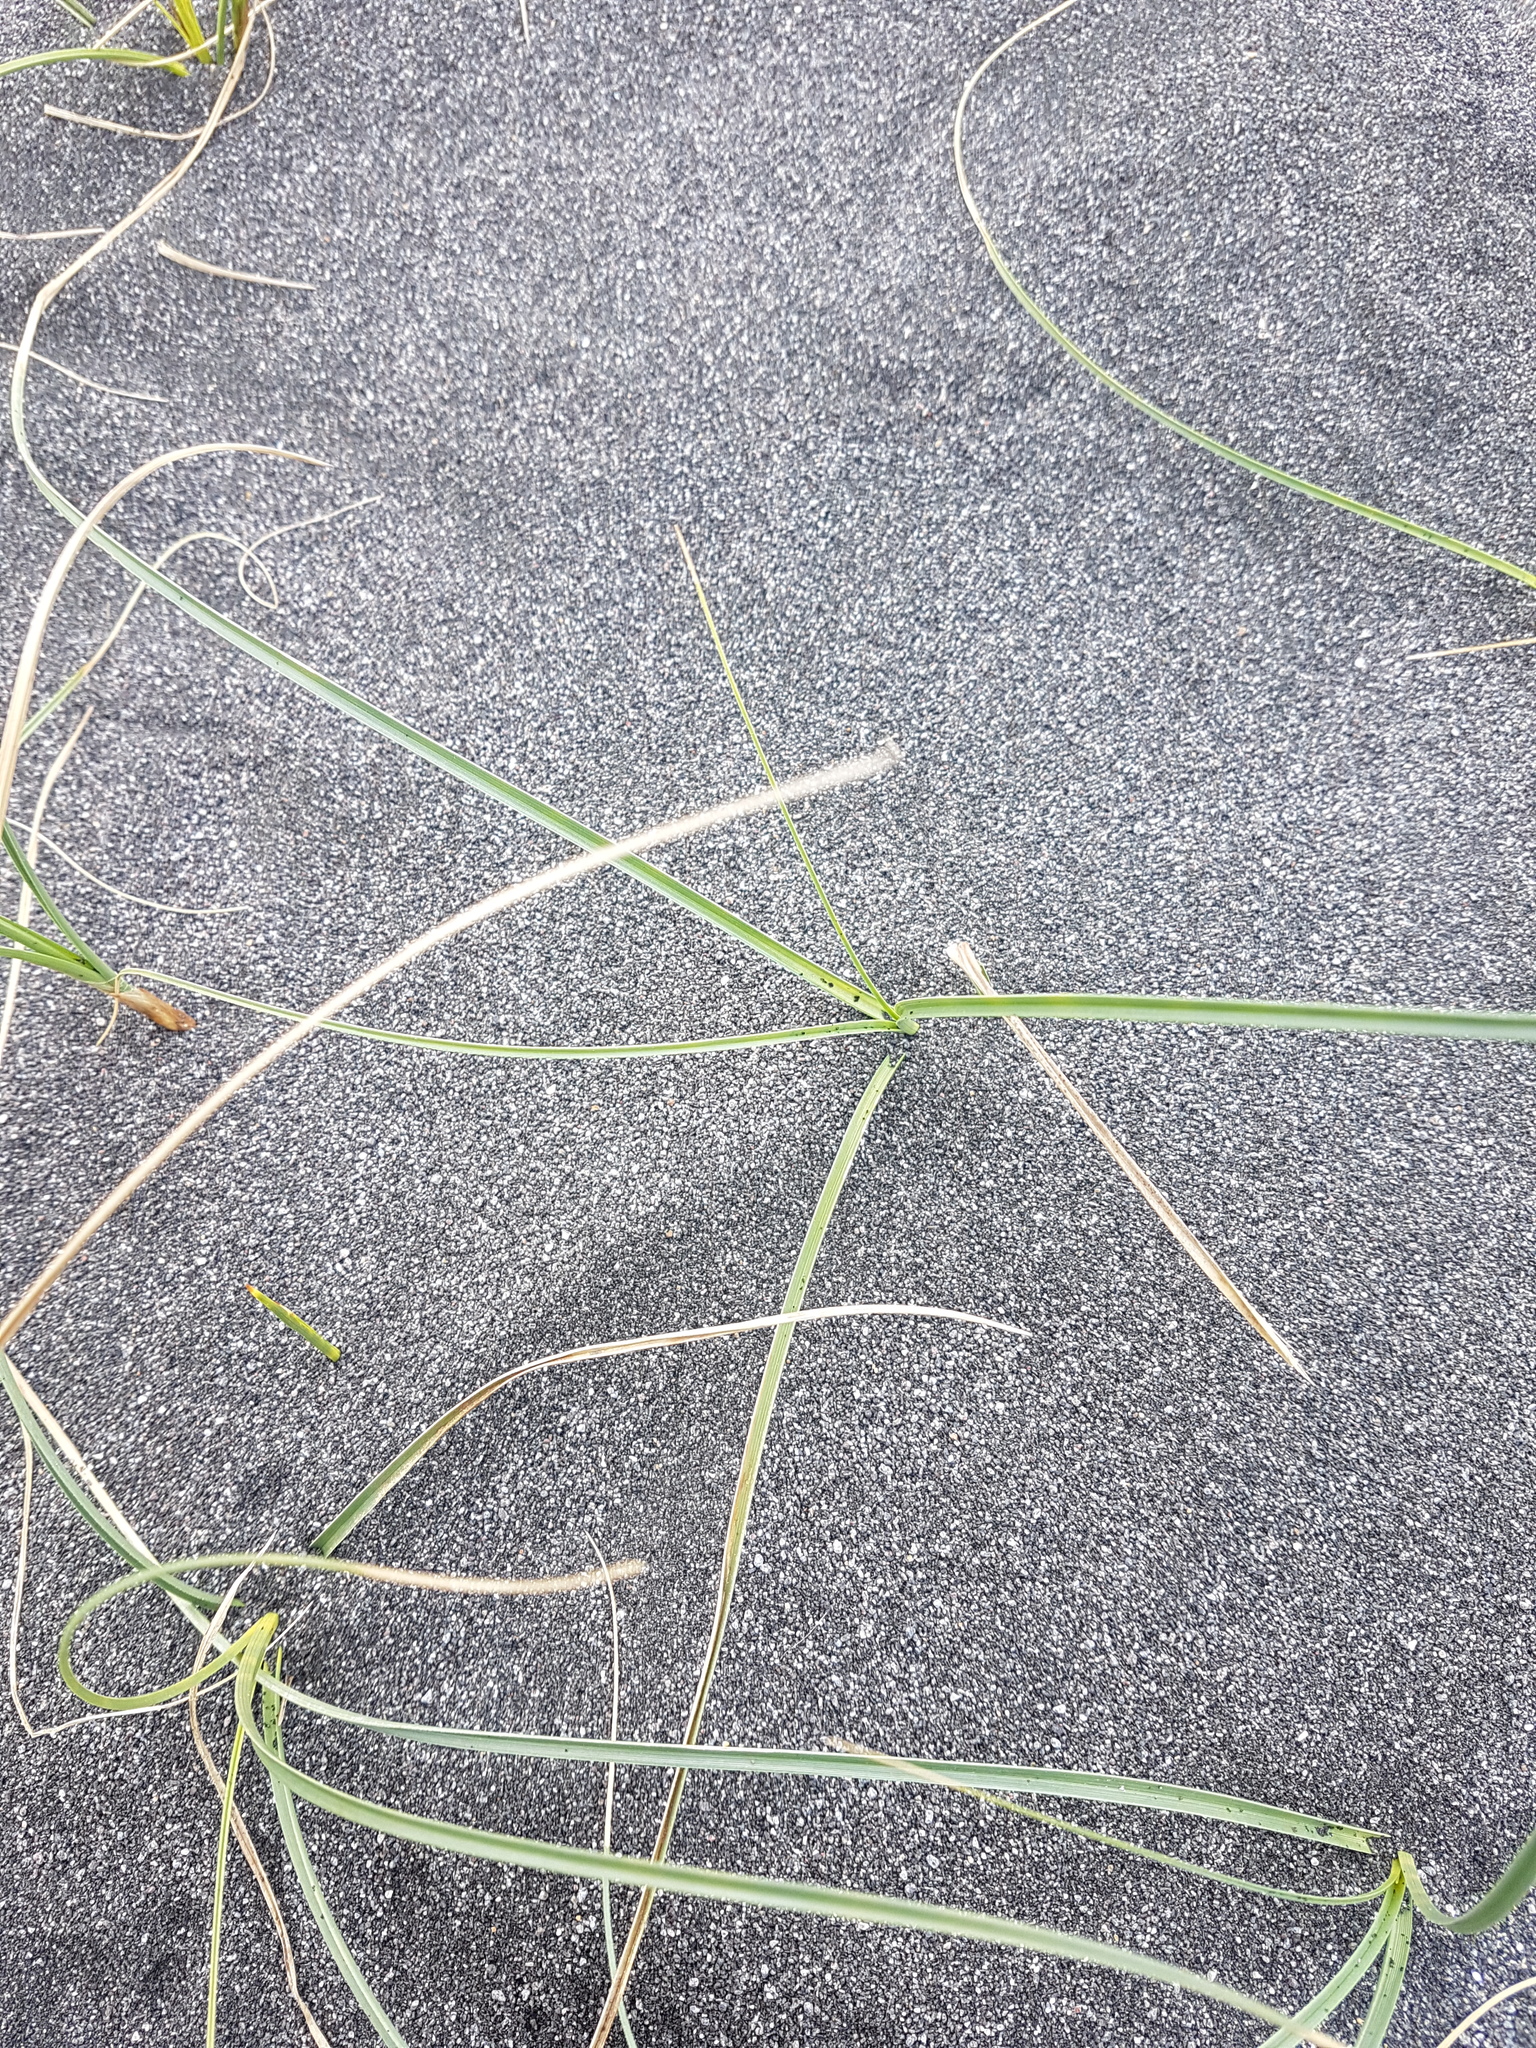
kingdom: Plantae
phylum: Tracheophyta
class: Liliopsida
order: Poales
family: Cyperaceae
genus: Carex
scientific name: Carex pumila
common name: Dwarf sedge
